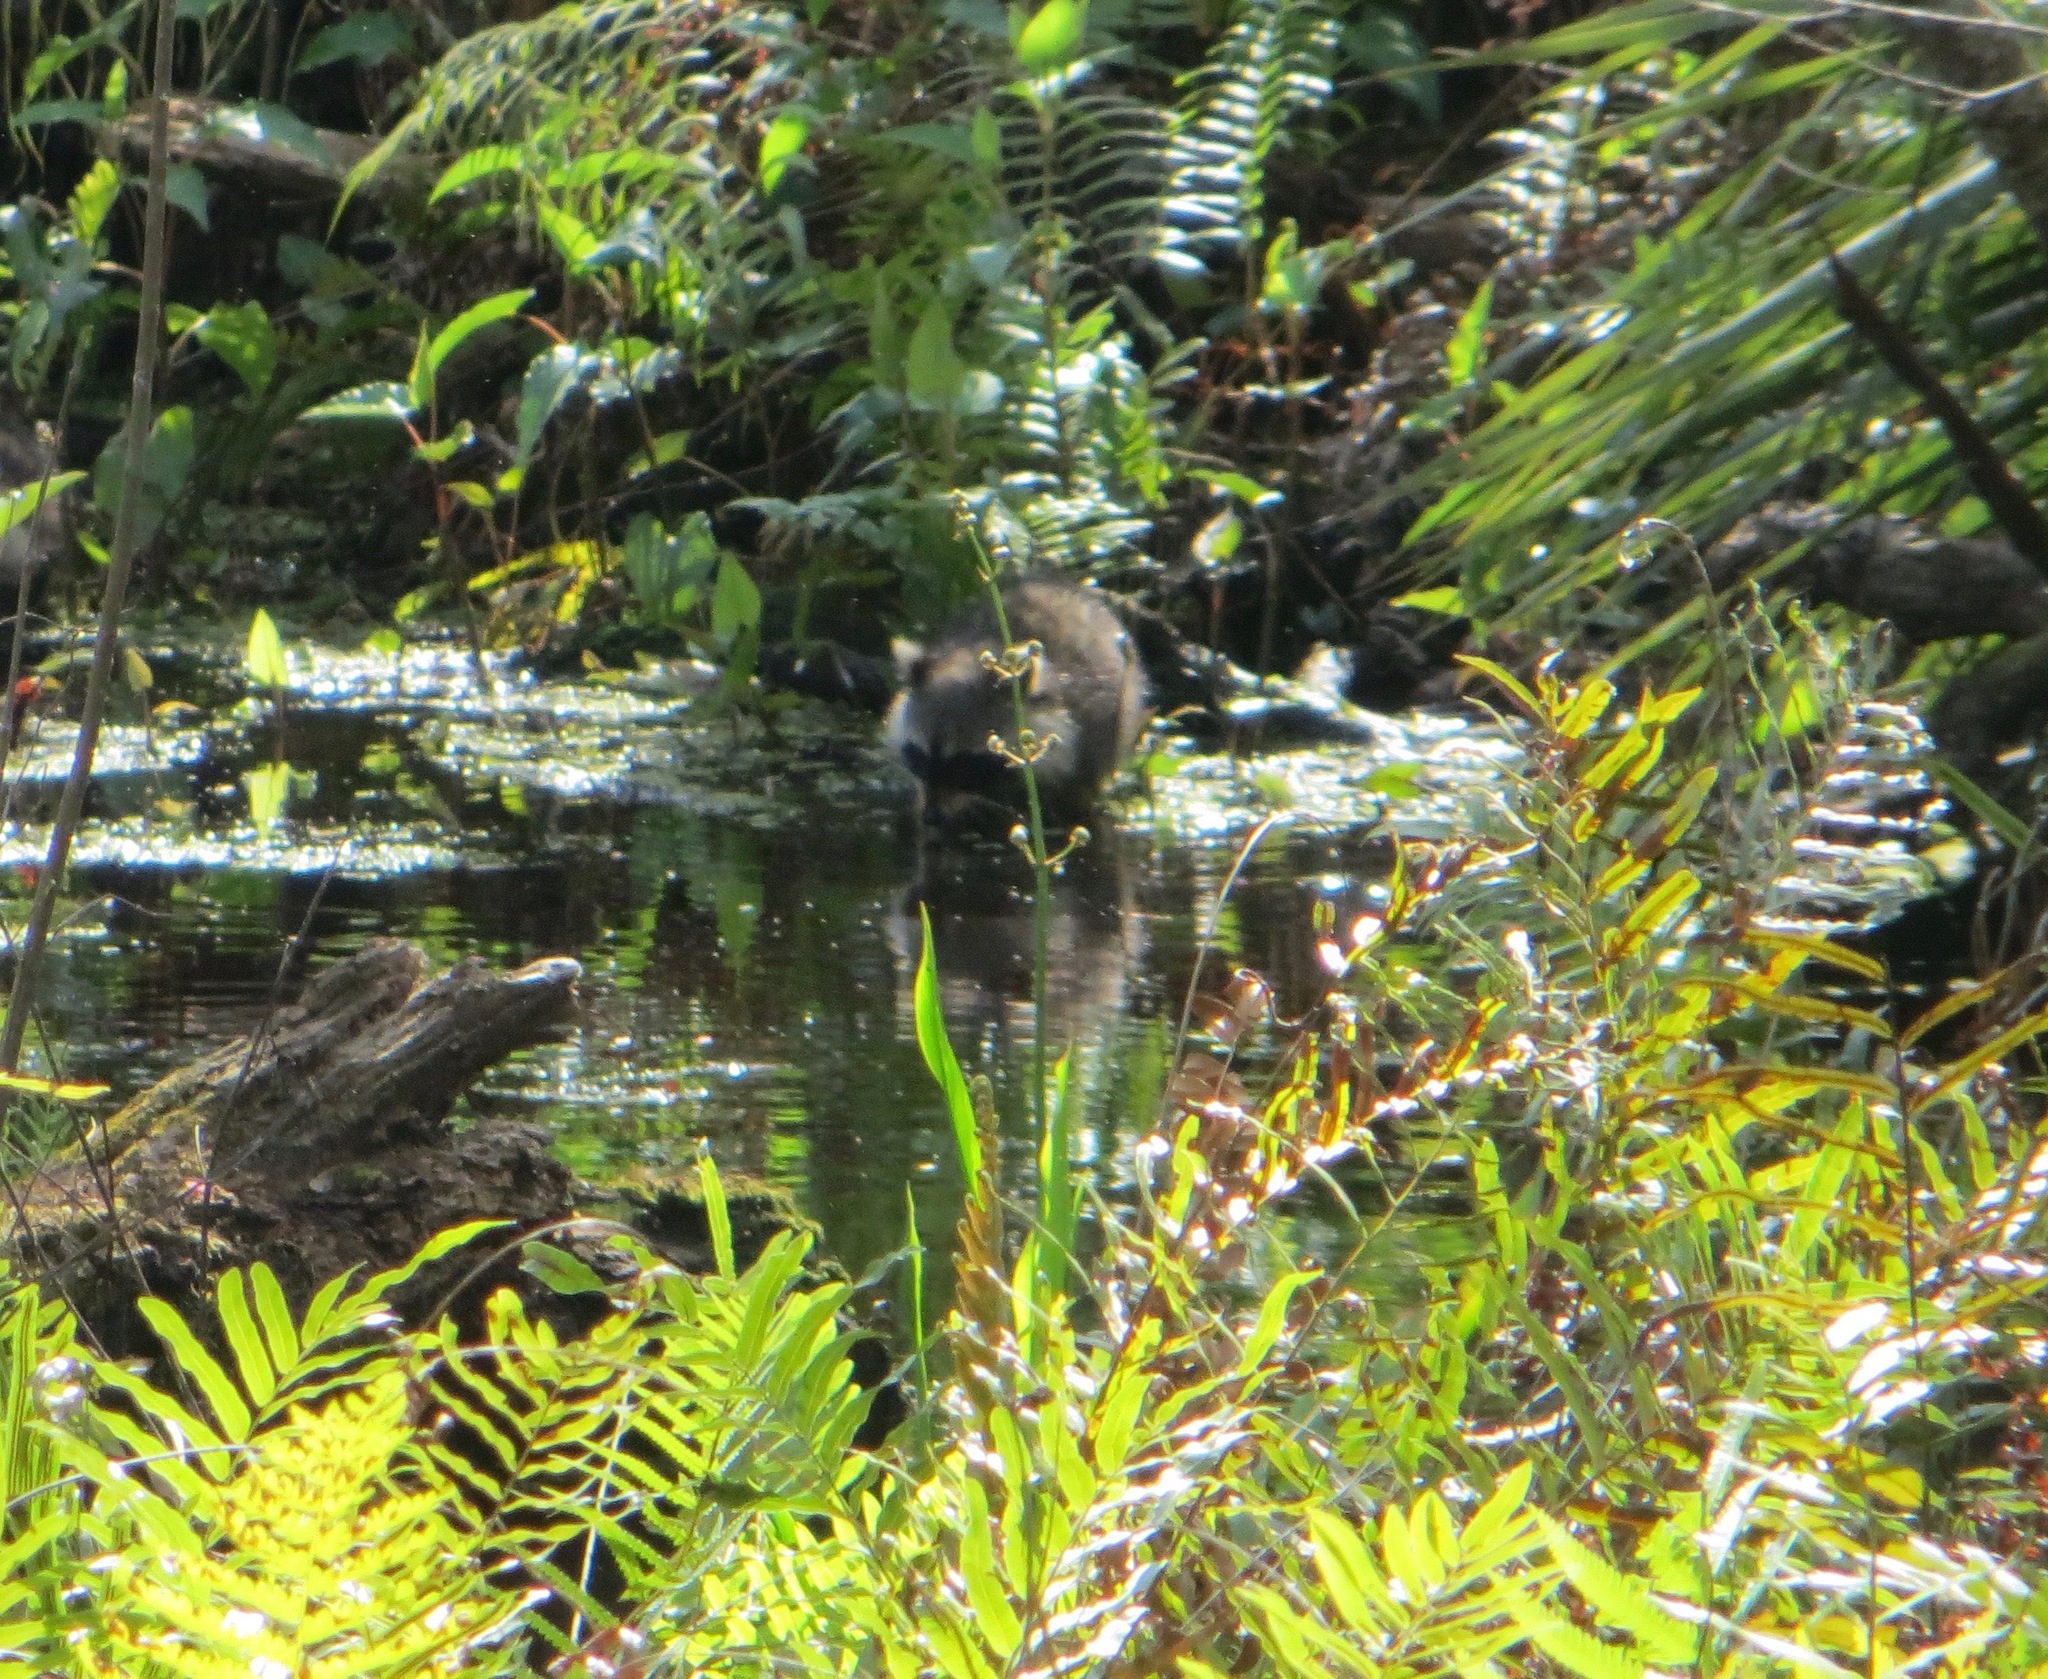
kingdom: Animalia
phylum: Chordata
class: Mammalia
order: Carnivora
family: Procyonidae
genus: Procyon
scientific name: Procyon lotor
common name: Raccoon
